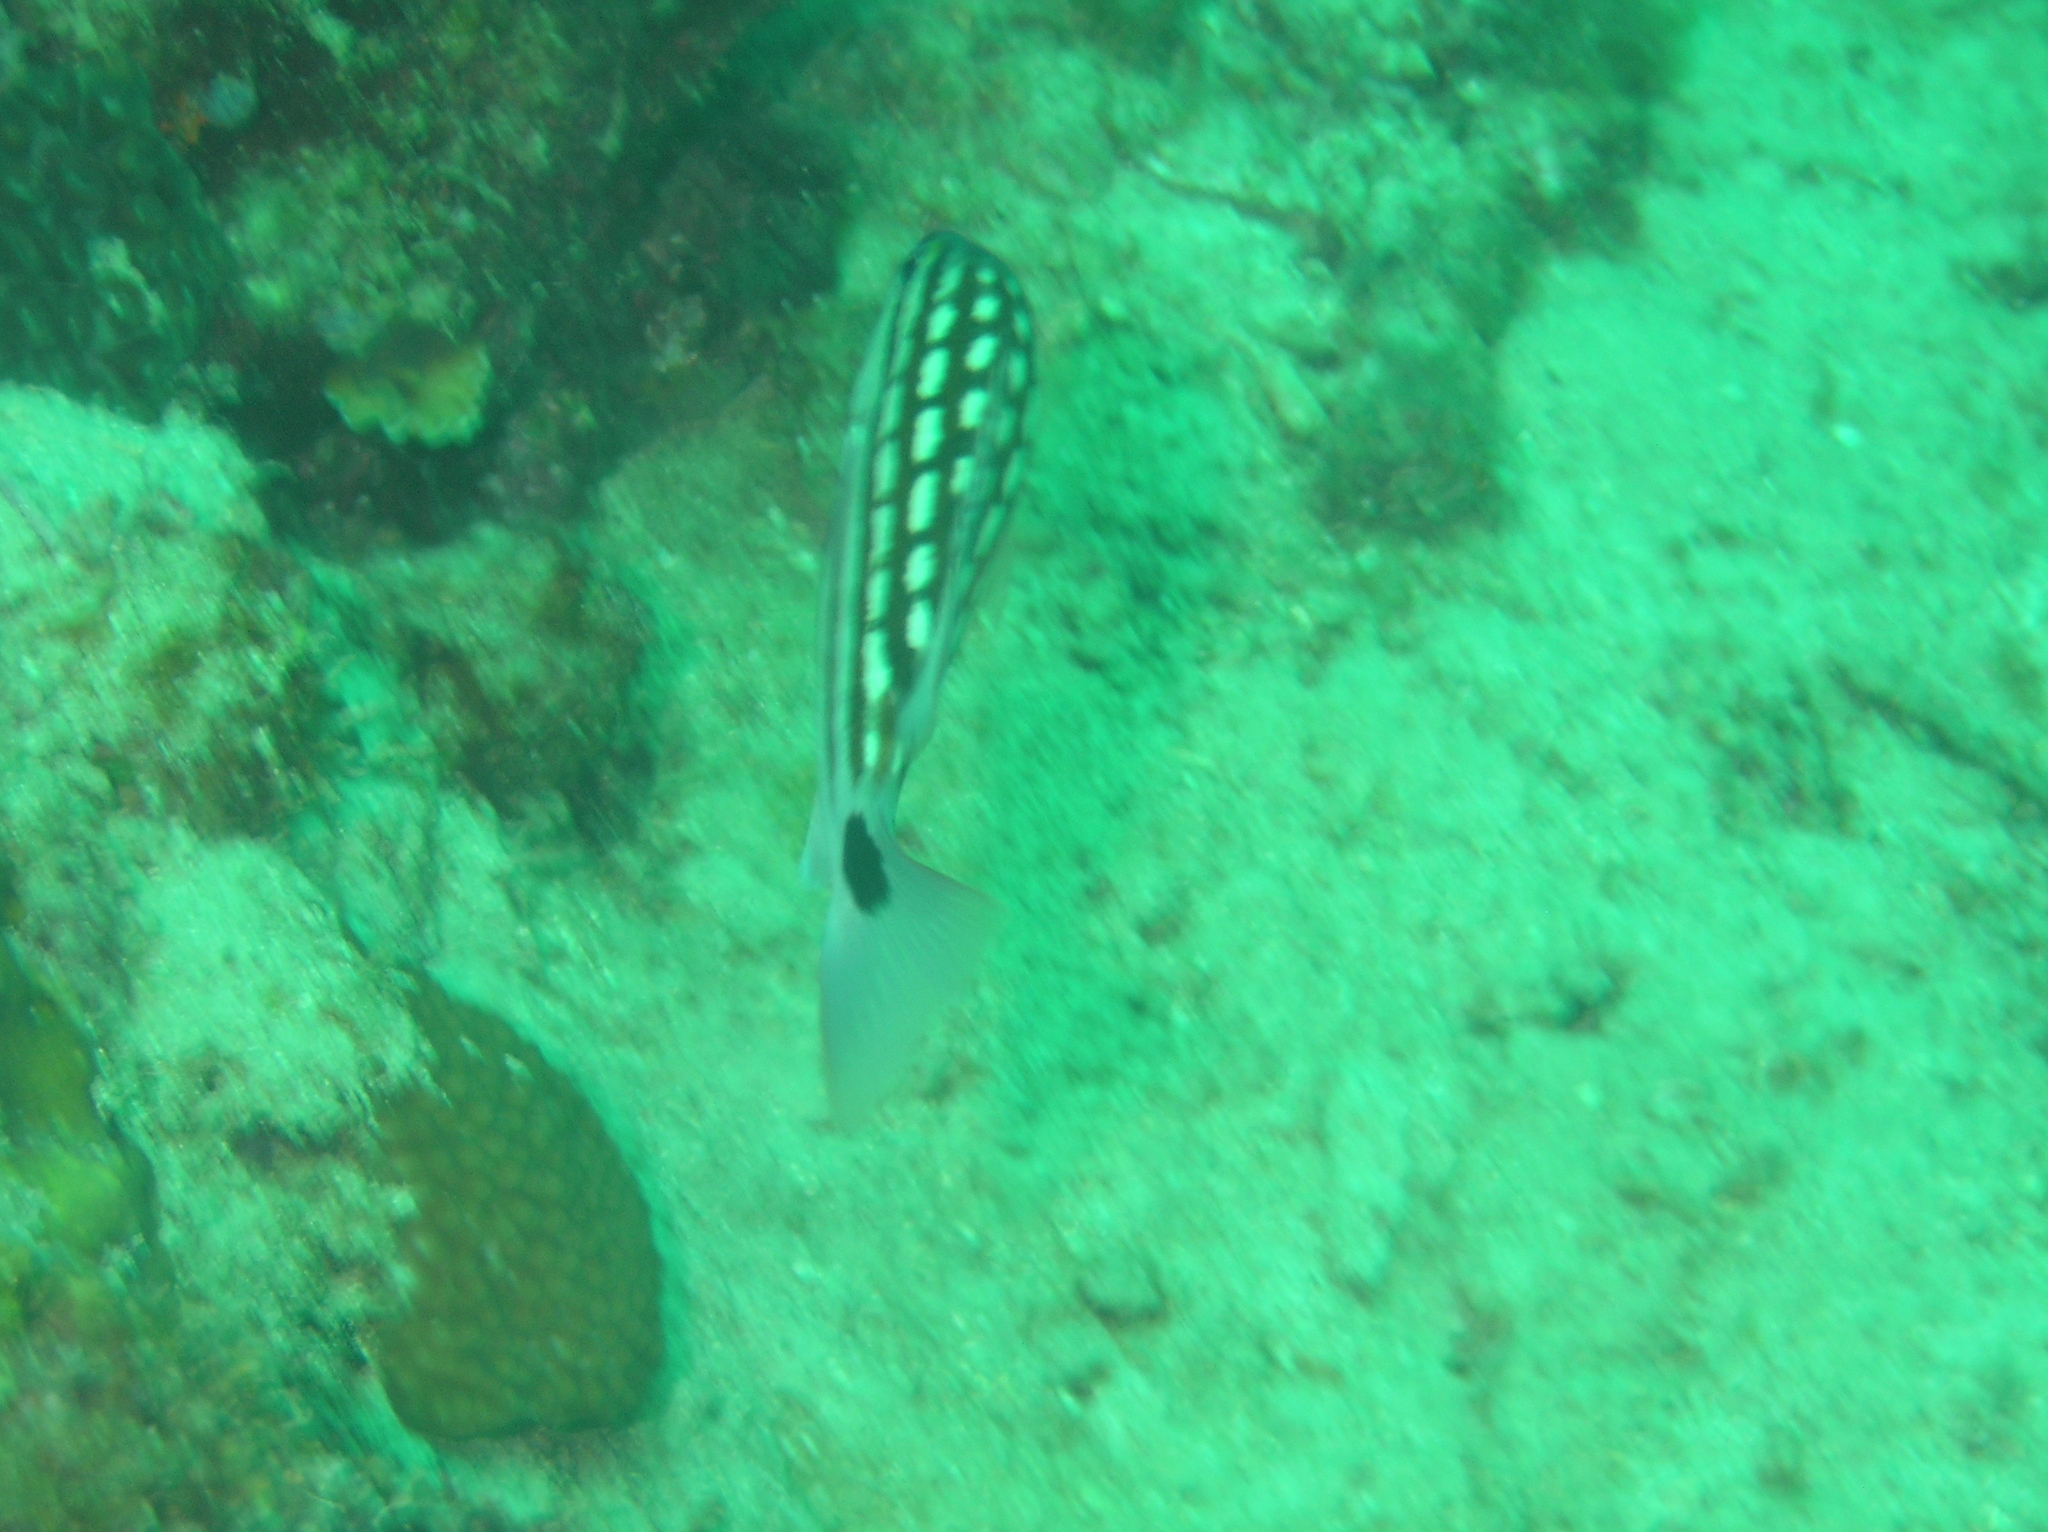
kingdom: Animalia
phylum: Chordata
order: Perciformes
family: Lutjanidae
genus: Lutjanus
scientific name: Lutjanus decussatus
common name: Checkered snapper
